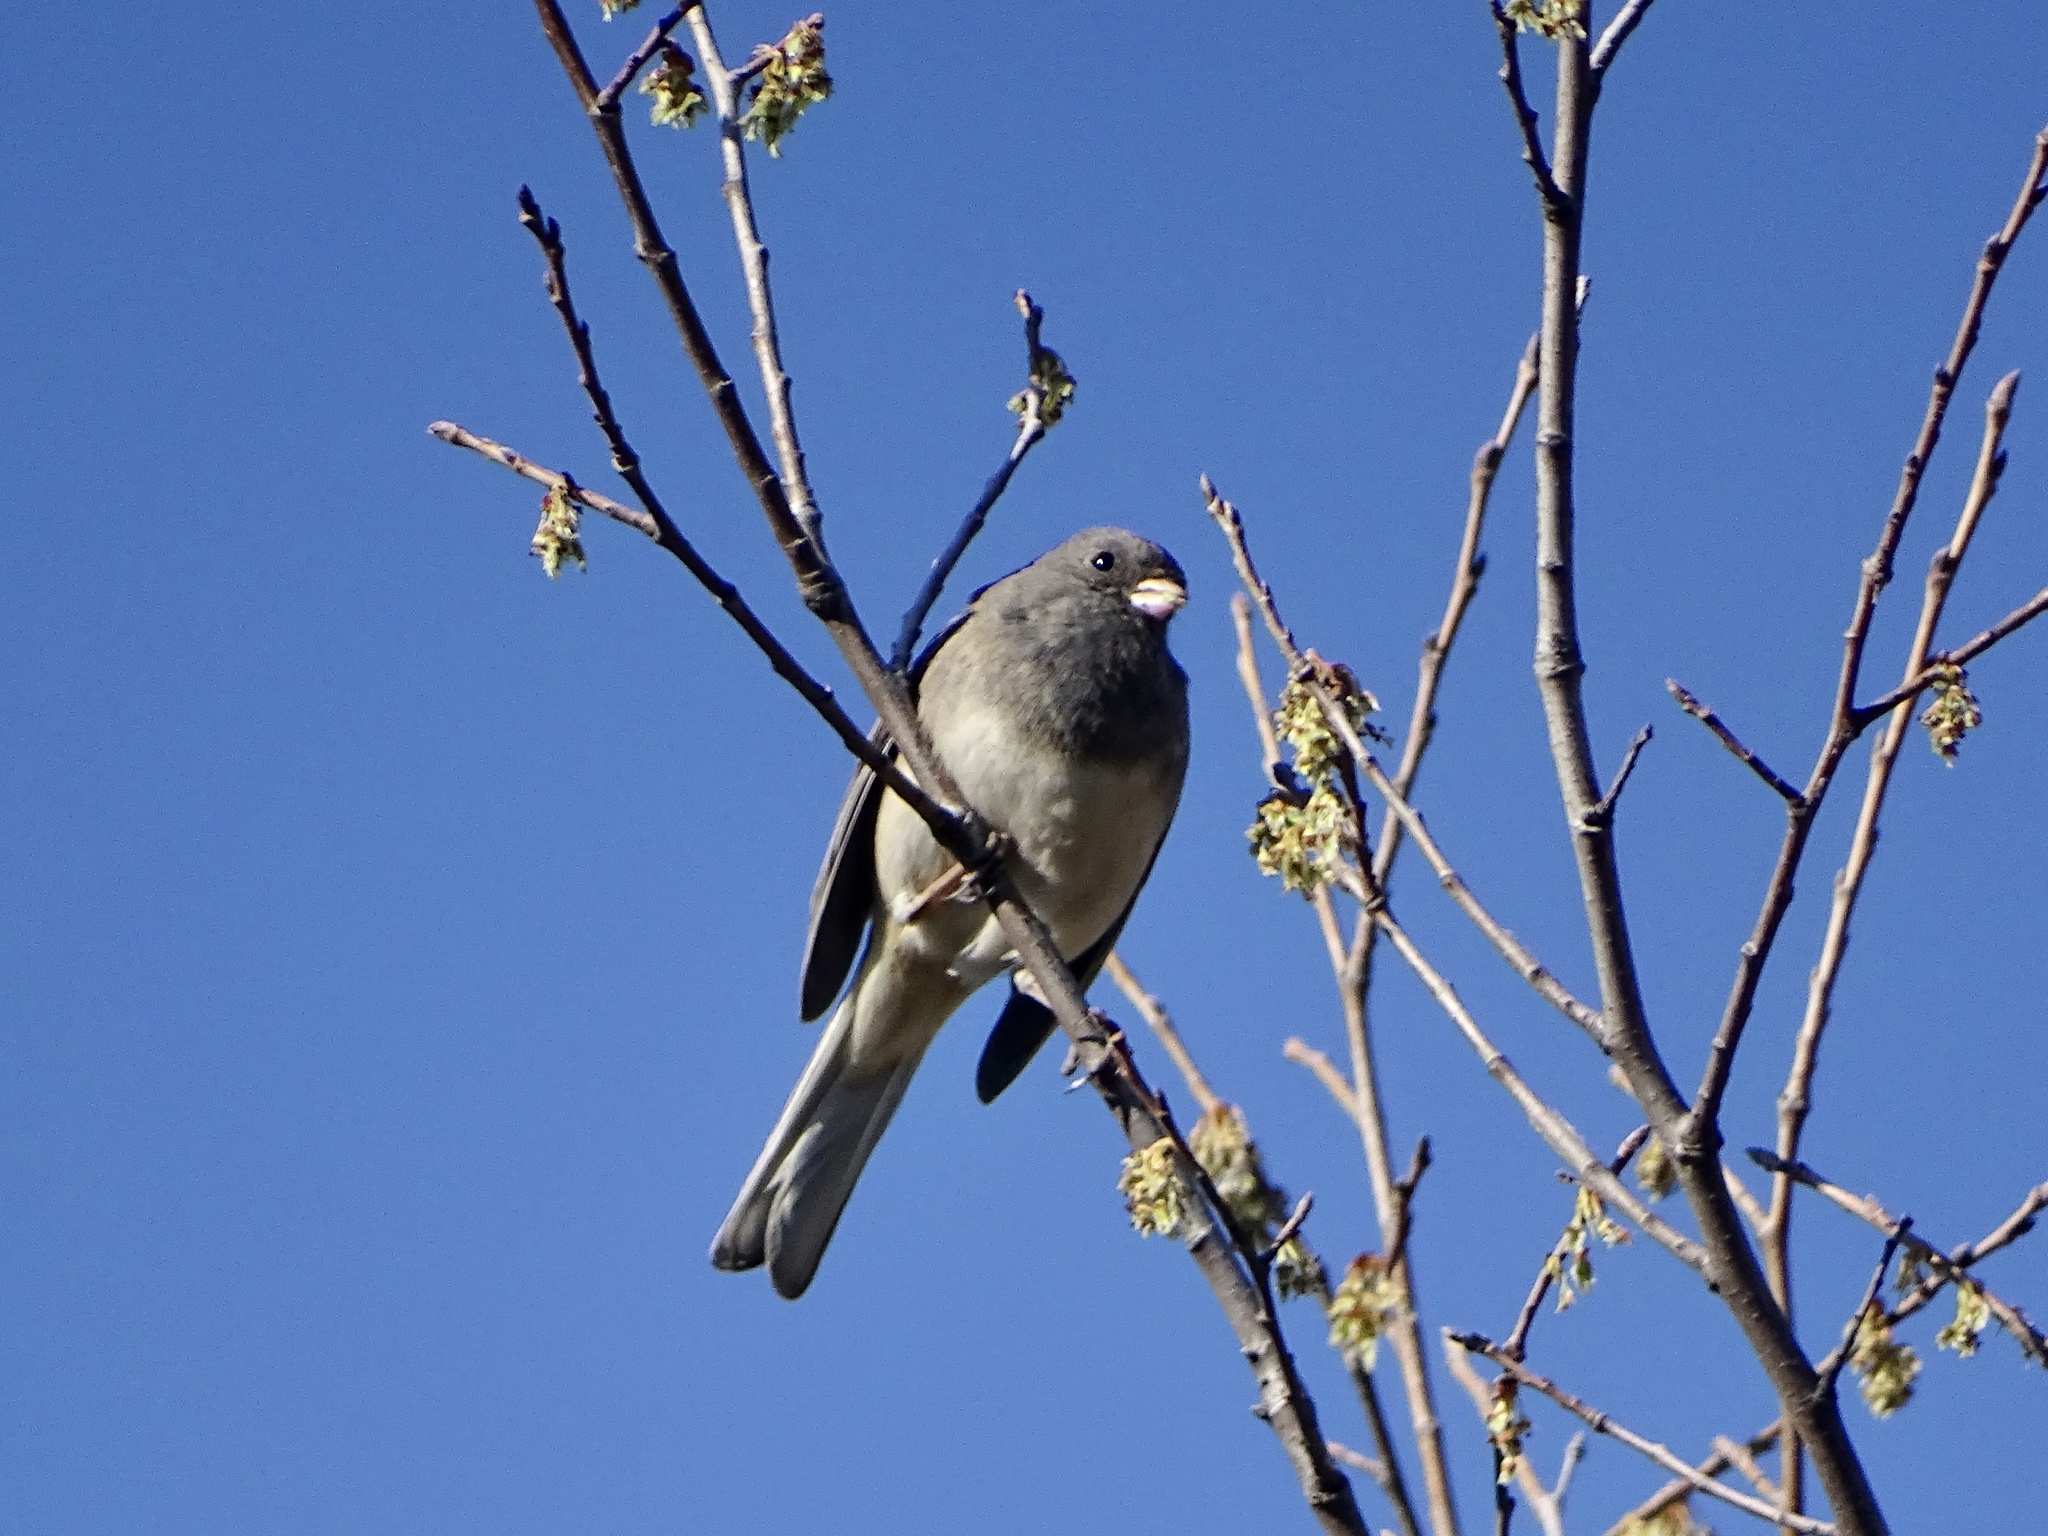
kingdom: Animalia
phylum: Chordata
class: Aves
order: Passeriformes
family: Passerellidae
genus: Junco
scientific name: Junco hyemalis
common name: Dark-eyed junco
